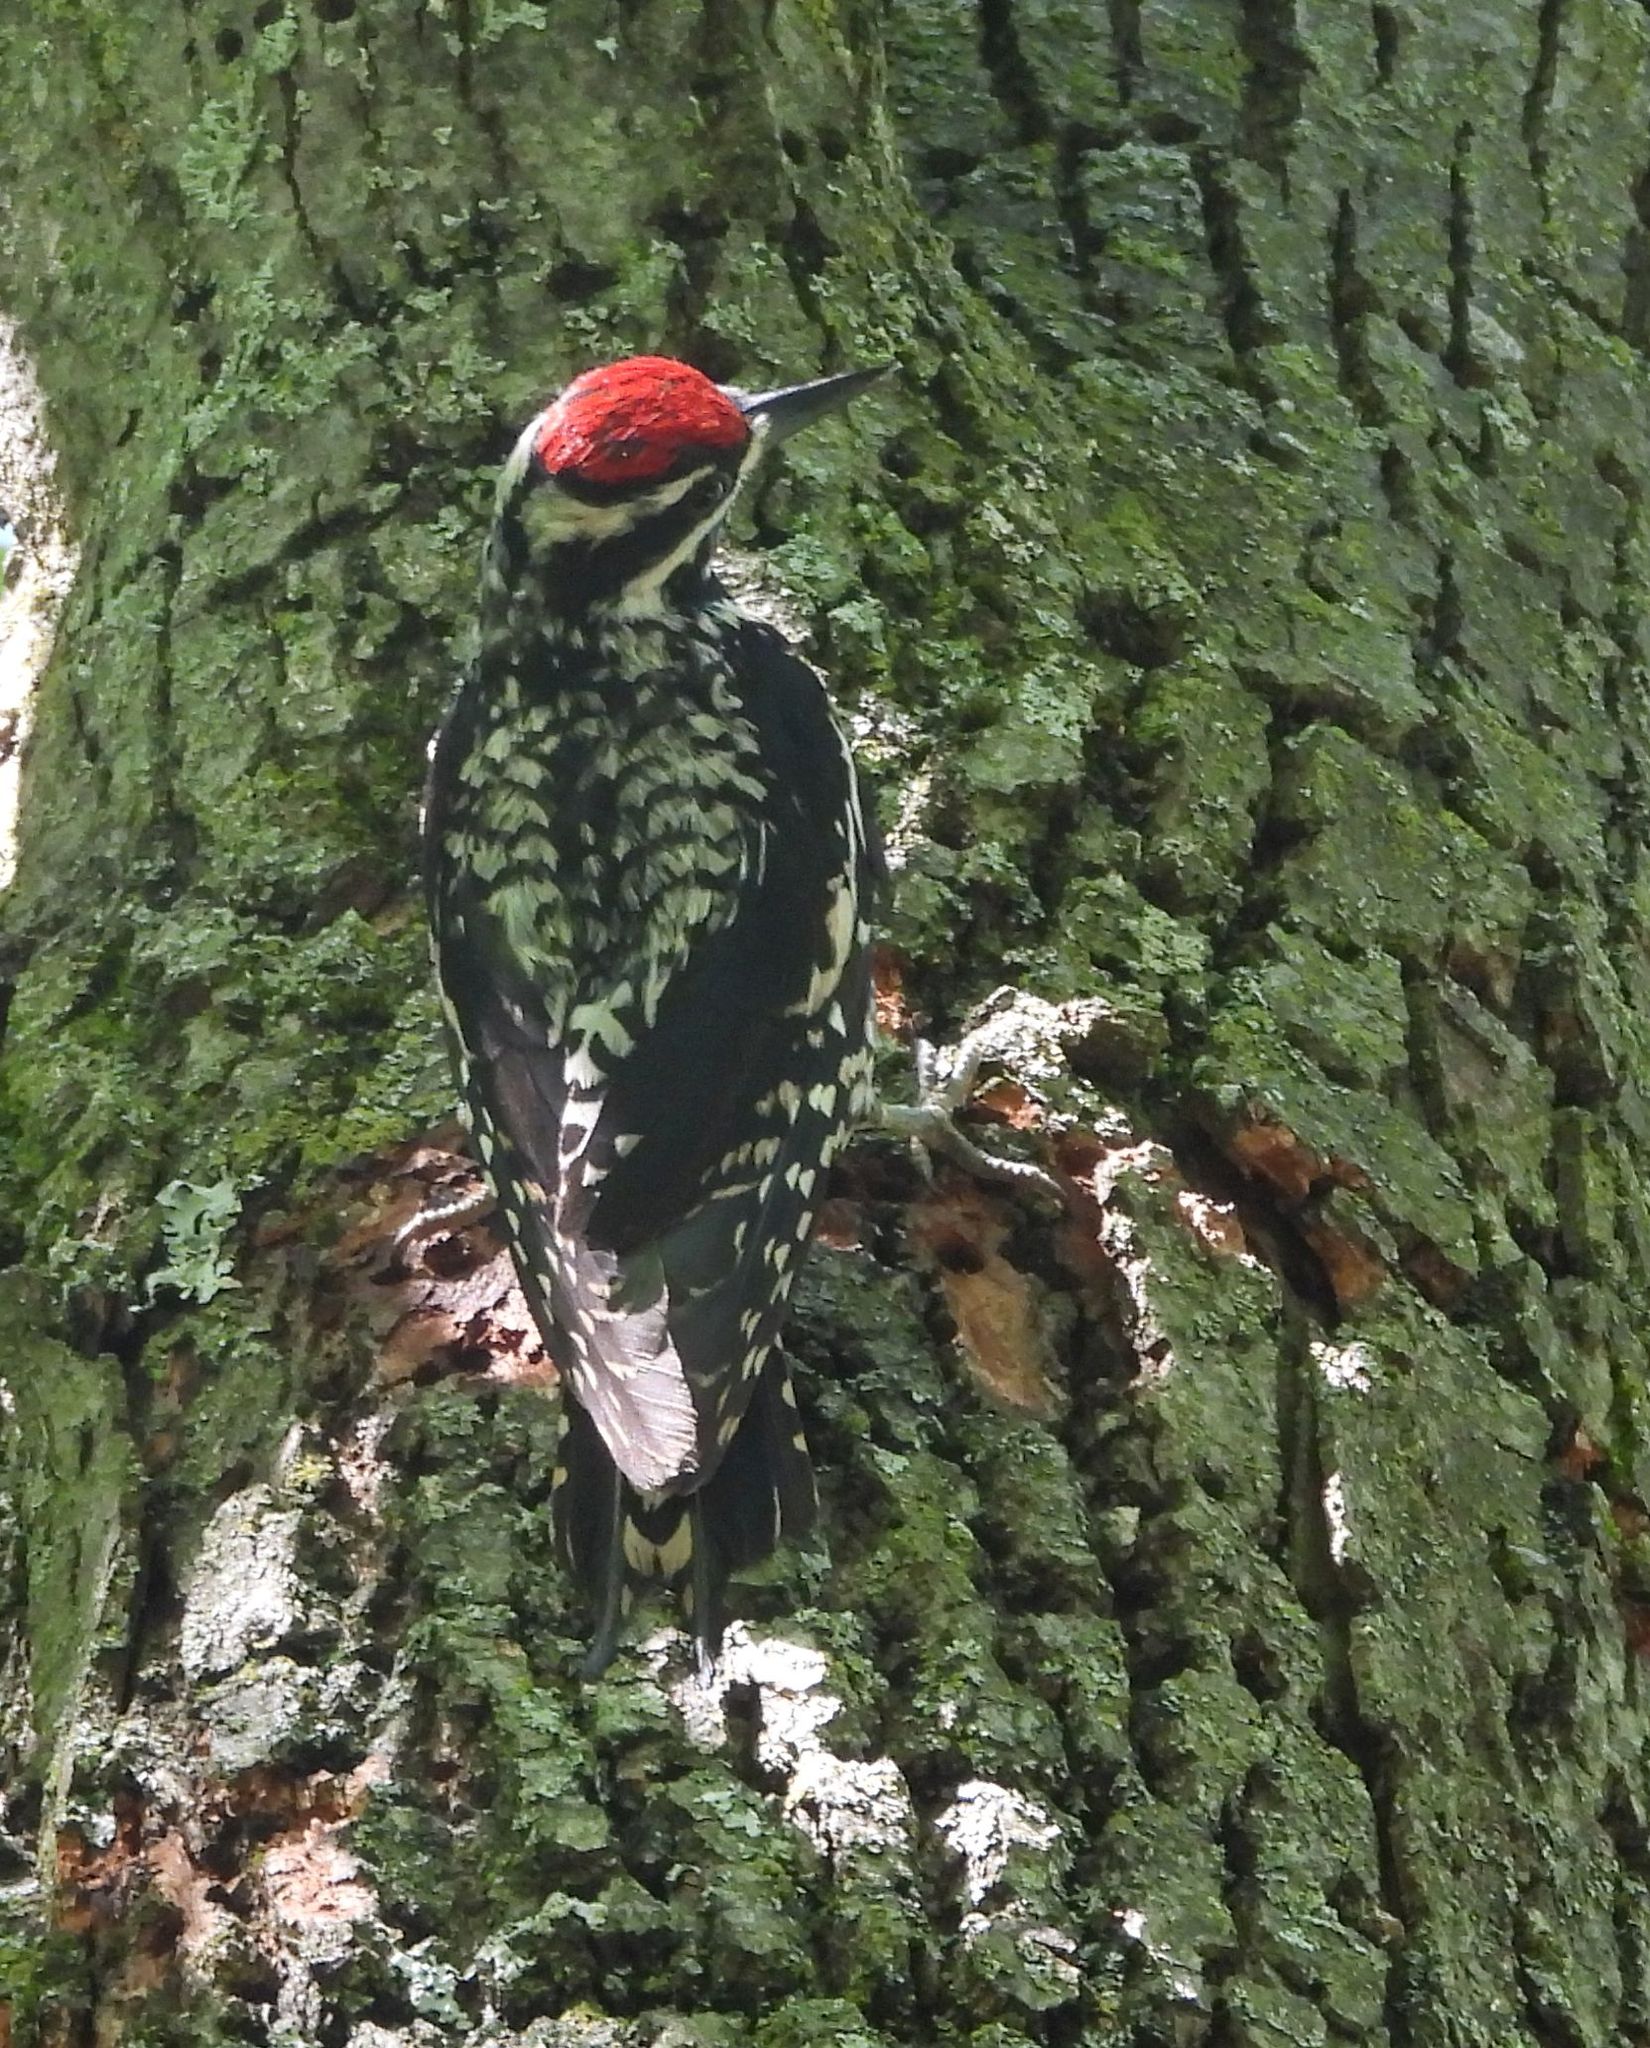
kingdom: Animalia
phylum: Chordata
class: Aves
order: Piciformes
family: Picidae
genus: Sphyrapicus
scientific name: Sphyrapicus varius
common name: Yellow-bellied sapsucker
